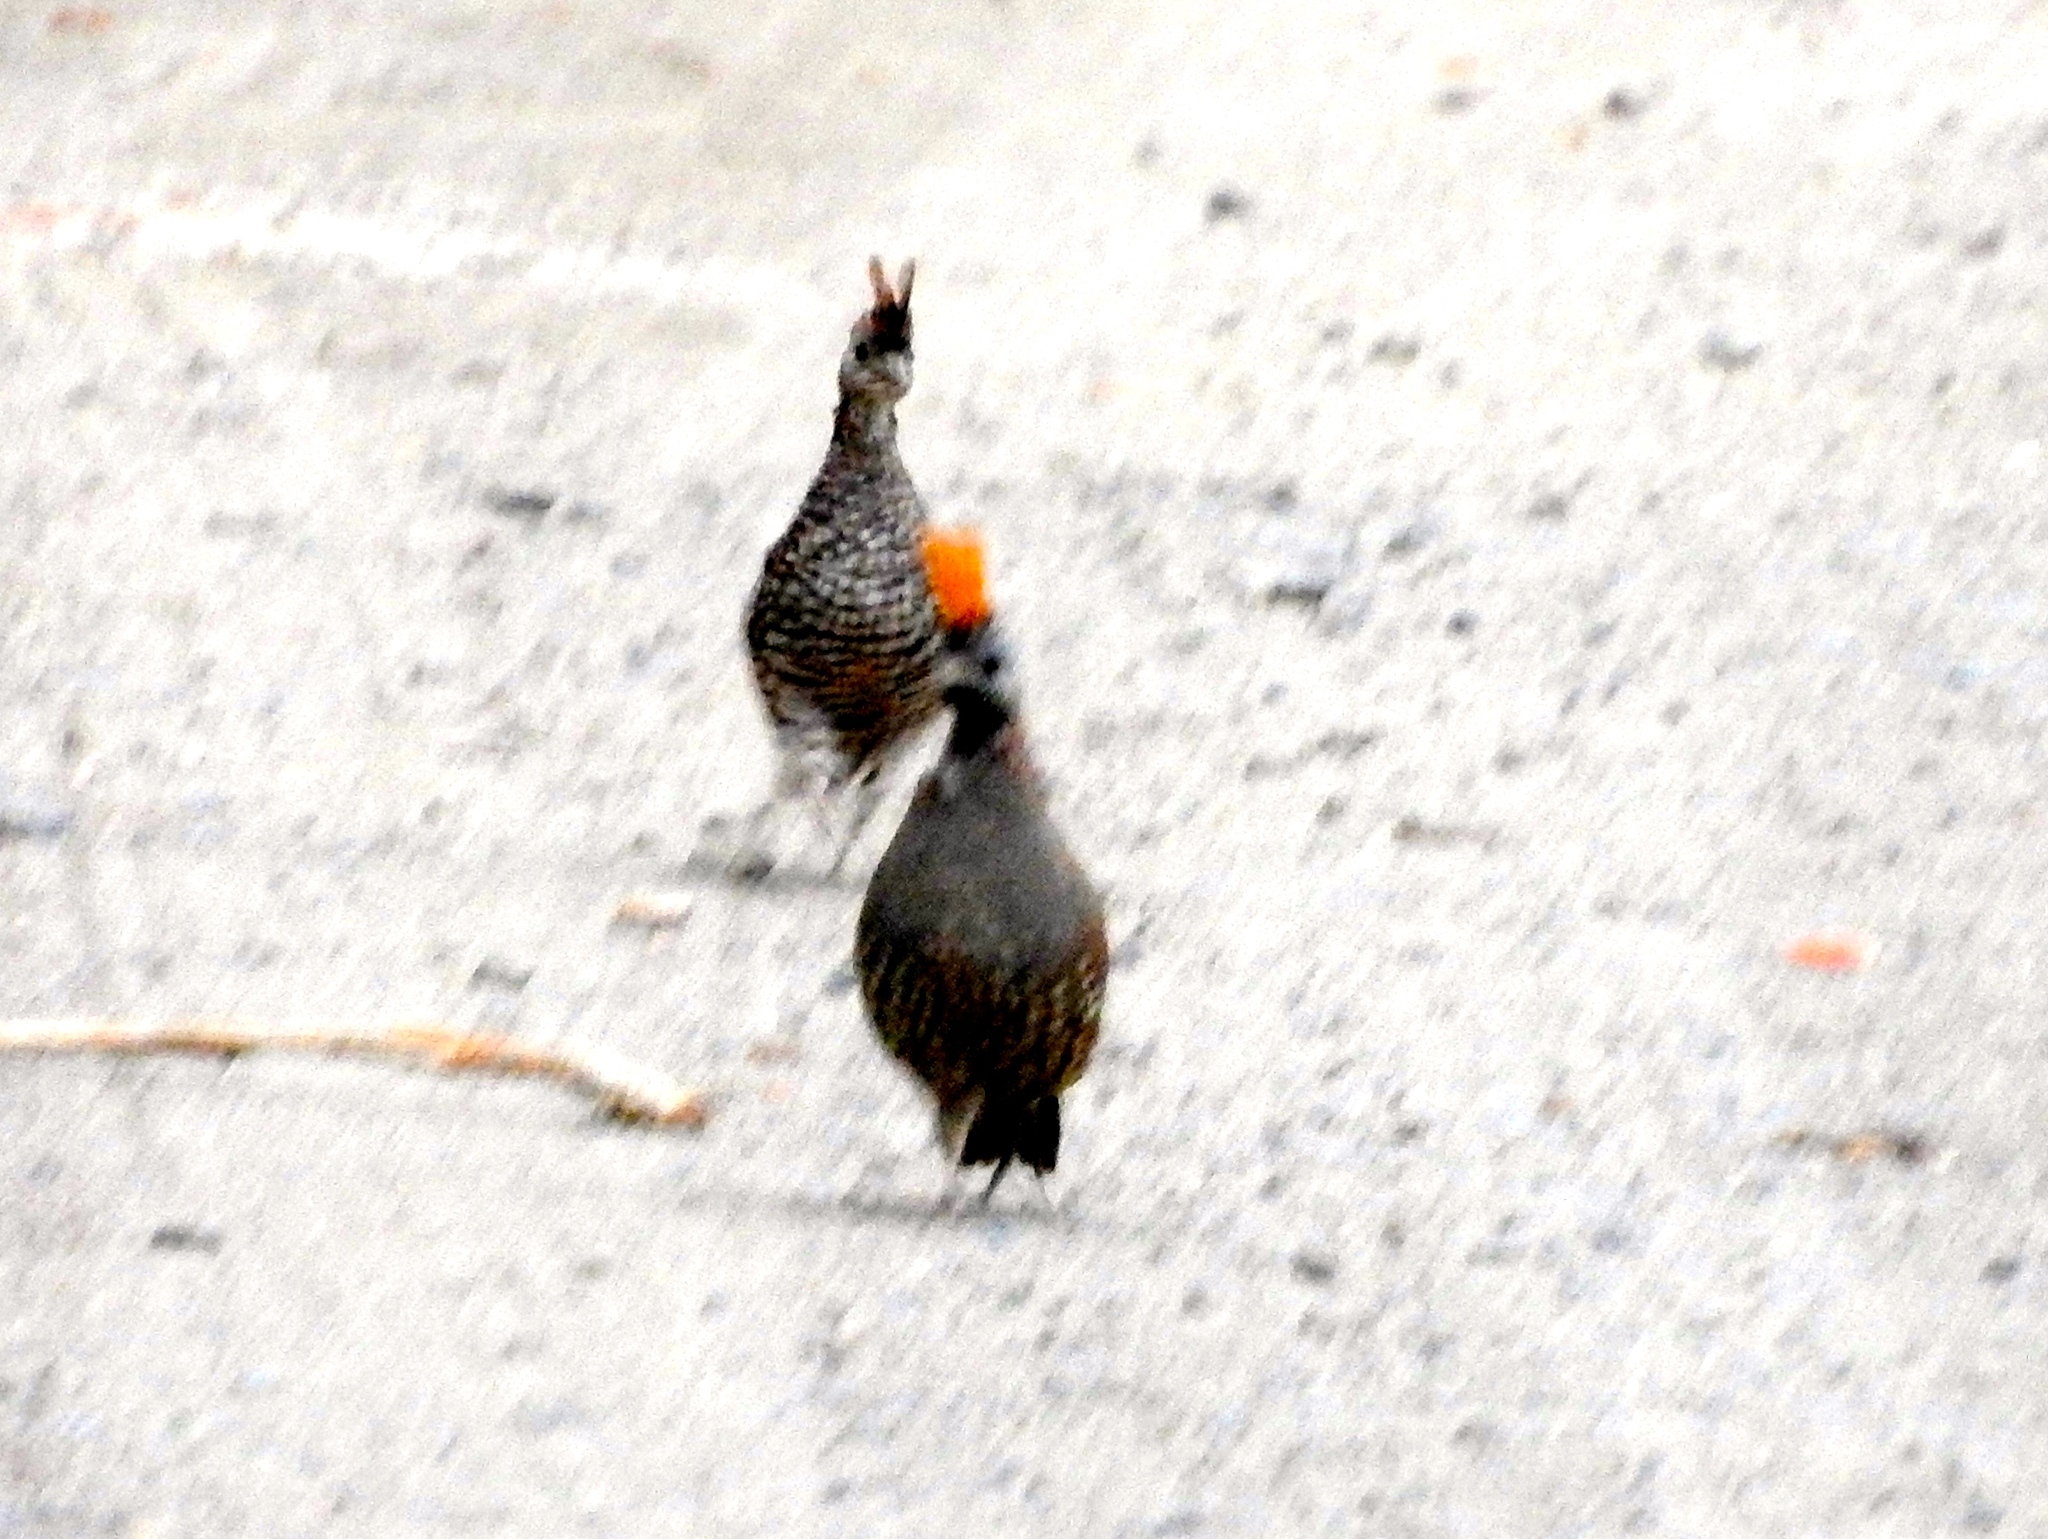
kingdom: Animalia
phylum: Chordata
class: Aves
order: Galliformes
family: Odontophoridae
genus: Callipepla
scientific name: Callipepla douglasii
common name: Elegant quail
